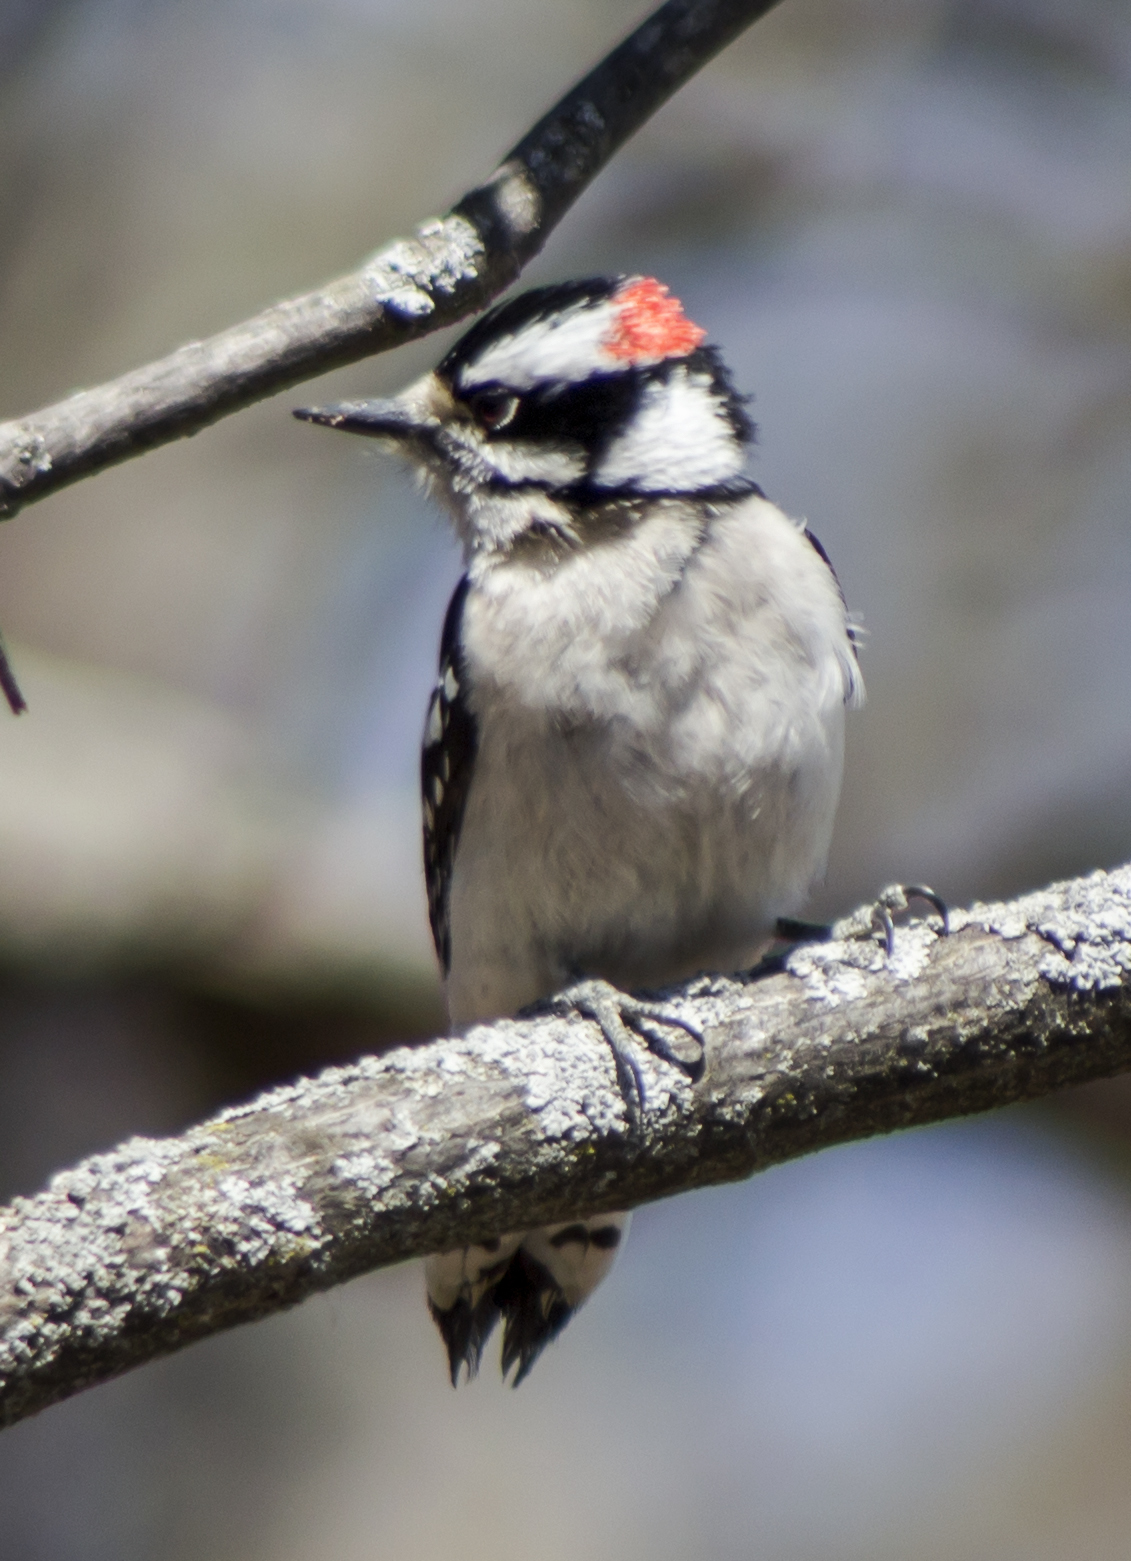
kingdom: Animalia
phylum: Chordata
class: Aves
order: Piciformes
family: Picidae
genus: Dryobates
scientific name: Dryobates pubescens
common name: Downy woodpecker
